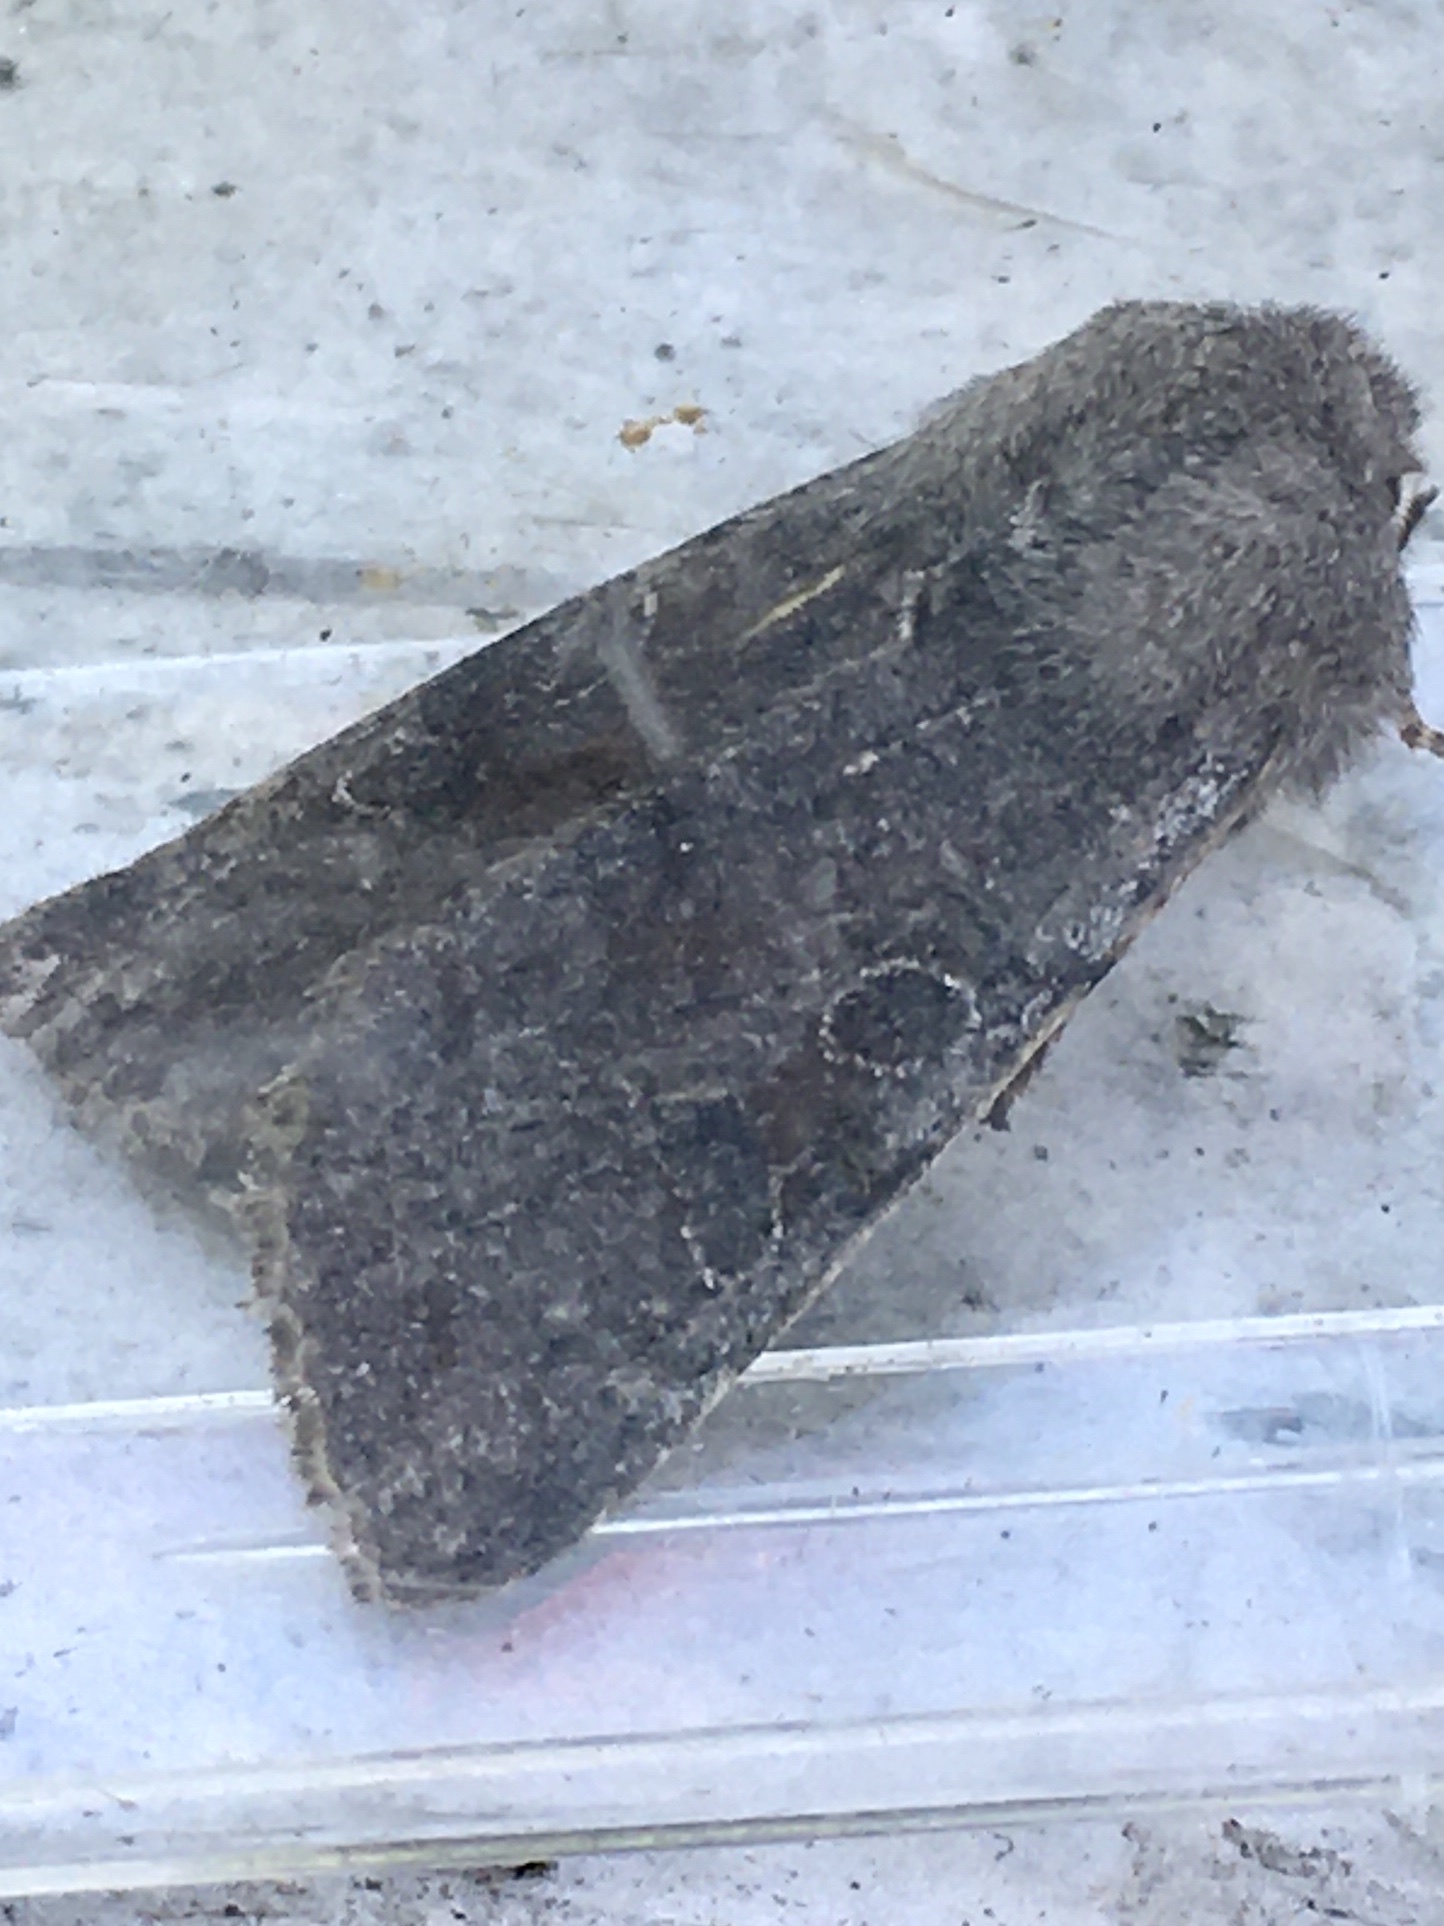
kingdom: Animalia
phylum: Arthropoda
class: Insecta
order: Lepidoptera
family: Noctuidae
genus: Orthosia
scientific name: Orthosia incerta
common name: Clouded drab
